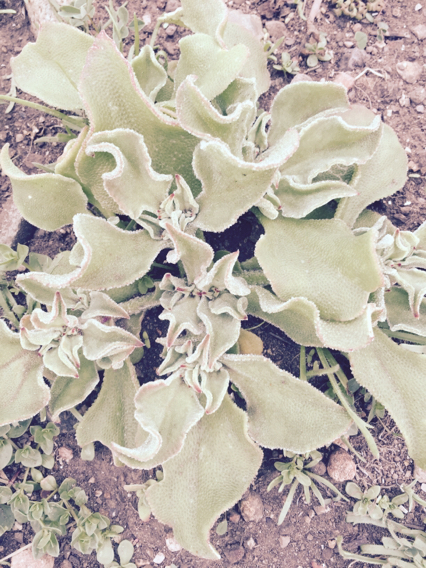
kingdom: Plantae
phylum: Tracheophyta
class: Magnoliopsida
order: Caryophyllales
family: Aizoaceae
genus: Mesembryanthemum
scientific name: Mesembryanthemum crystallinum
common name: Common iceplant
